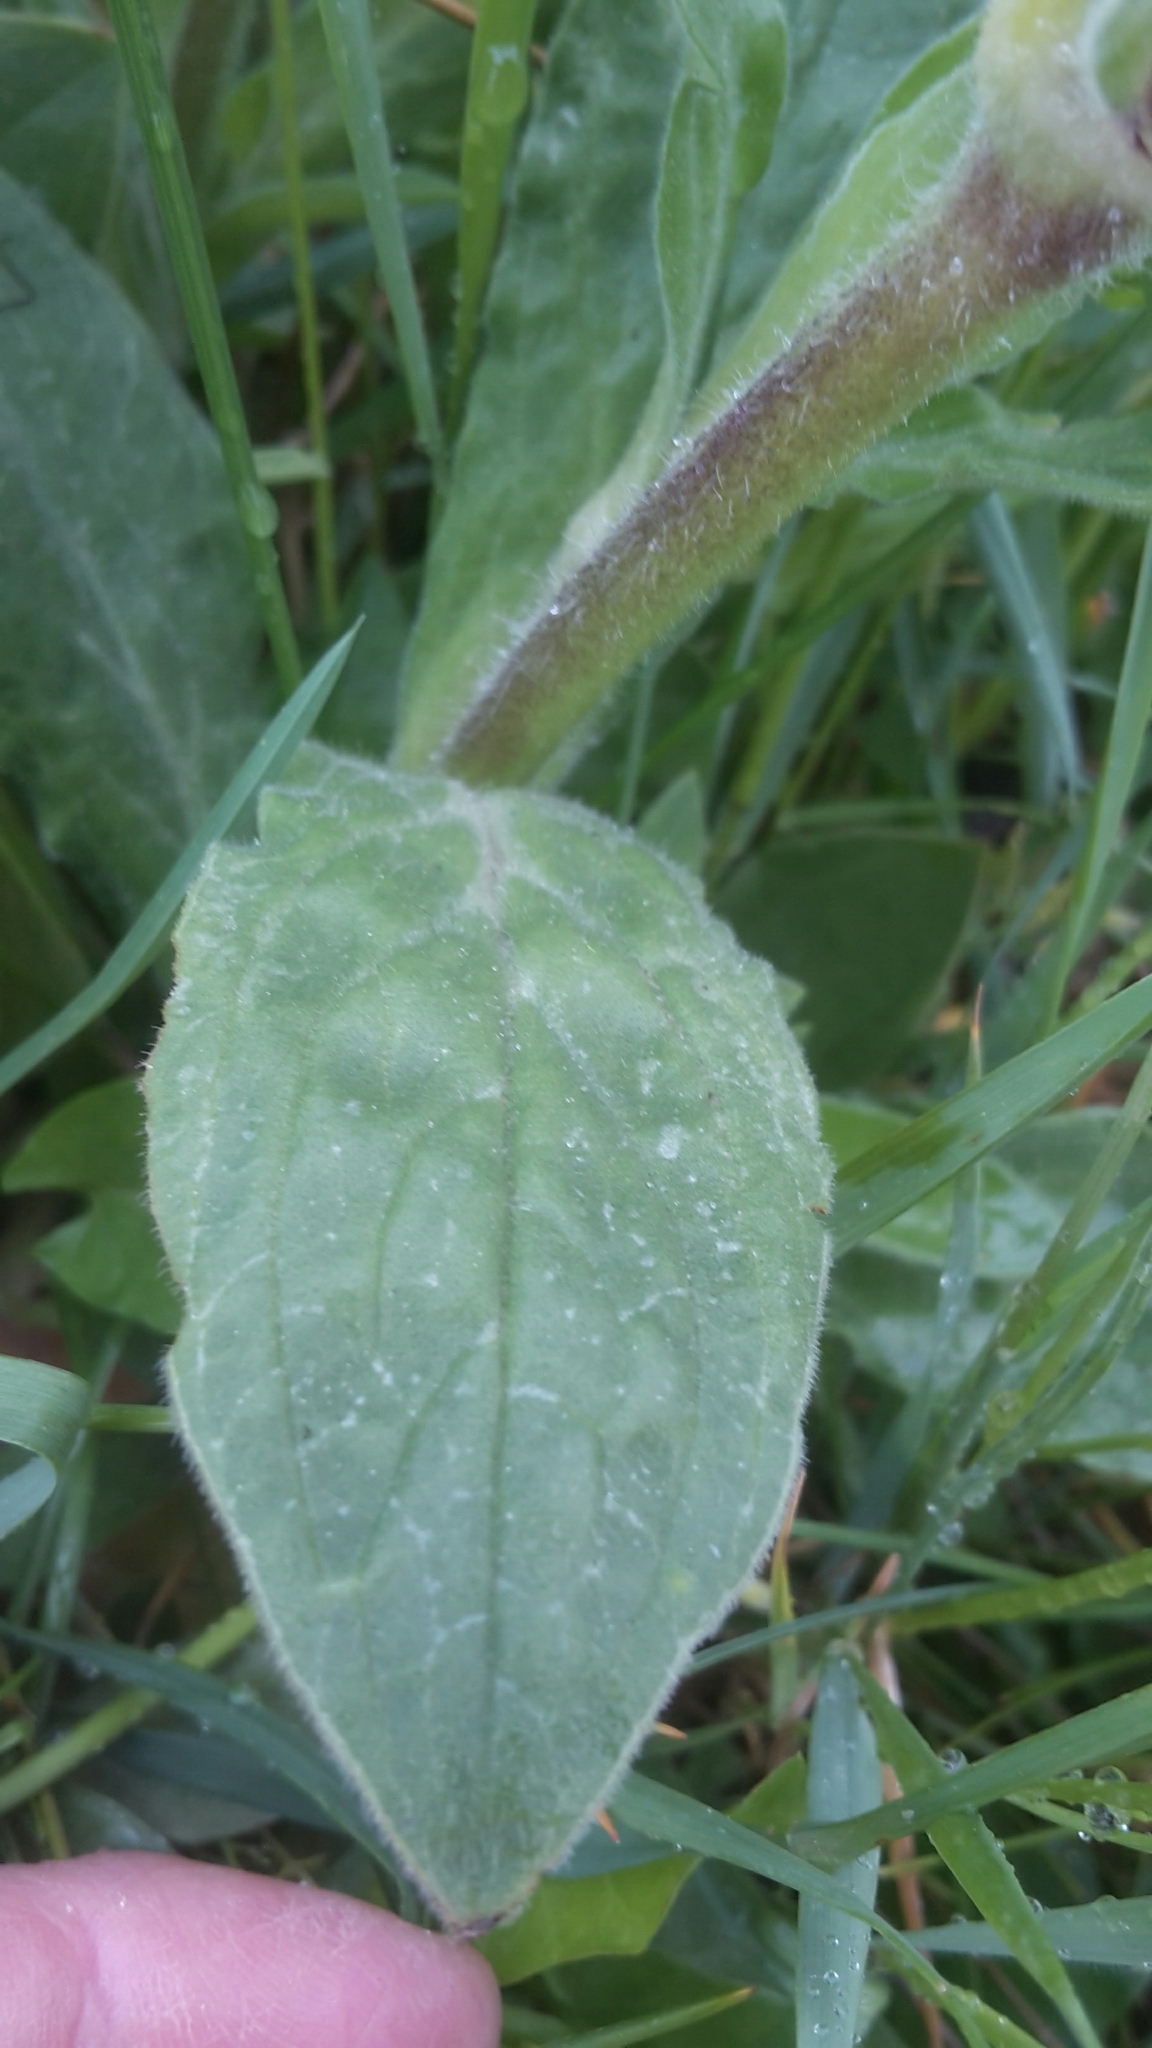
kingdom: Plantae
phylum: Tracheophyta
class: Magnoliopsida
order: Caryophyllales
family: Caryophyllaceae
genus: Silene
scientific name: Silene latifolia
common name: White campion
